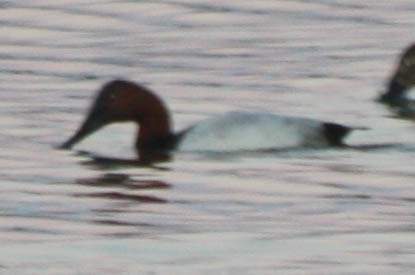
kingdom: Animalia
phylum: Chordata
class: Aves
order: Anseriformes
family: Anatidae
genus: Aythya
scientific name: Aythya valisineria
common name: Canvasback
